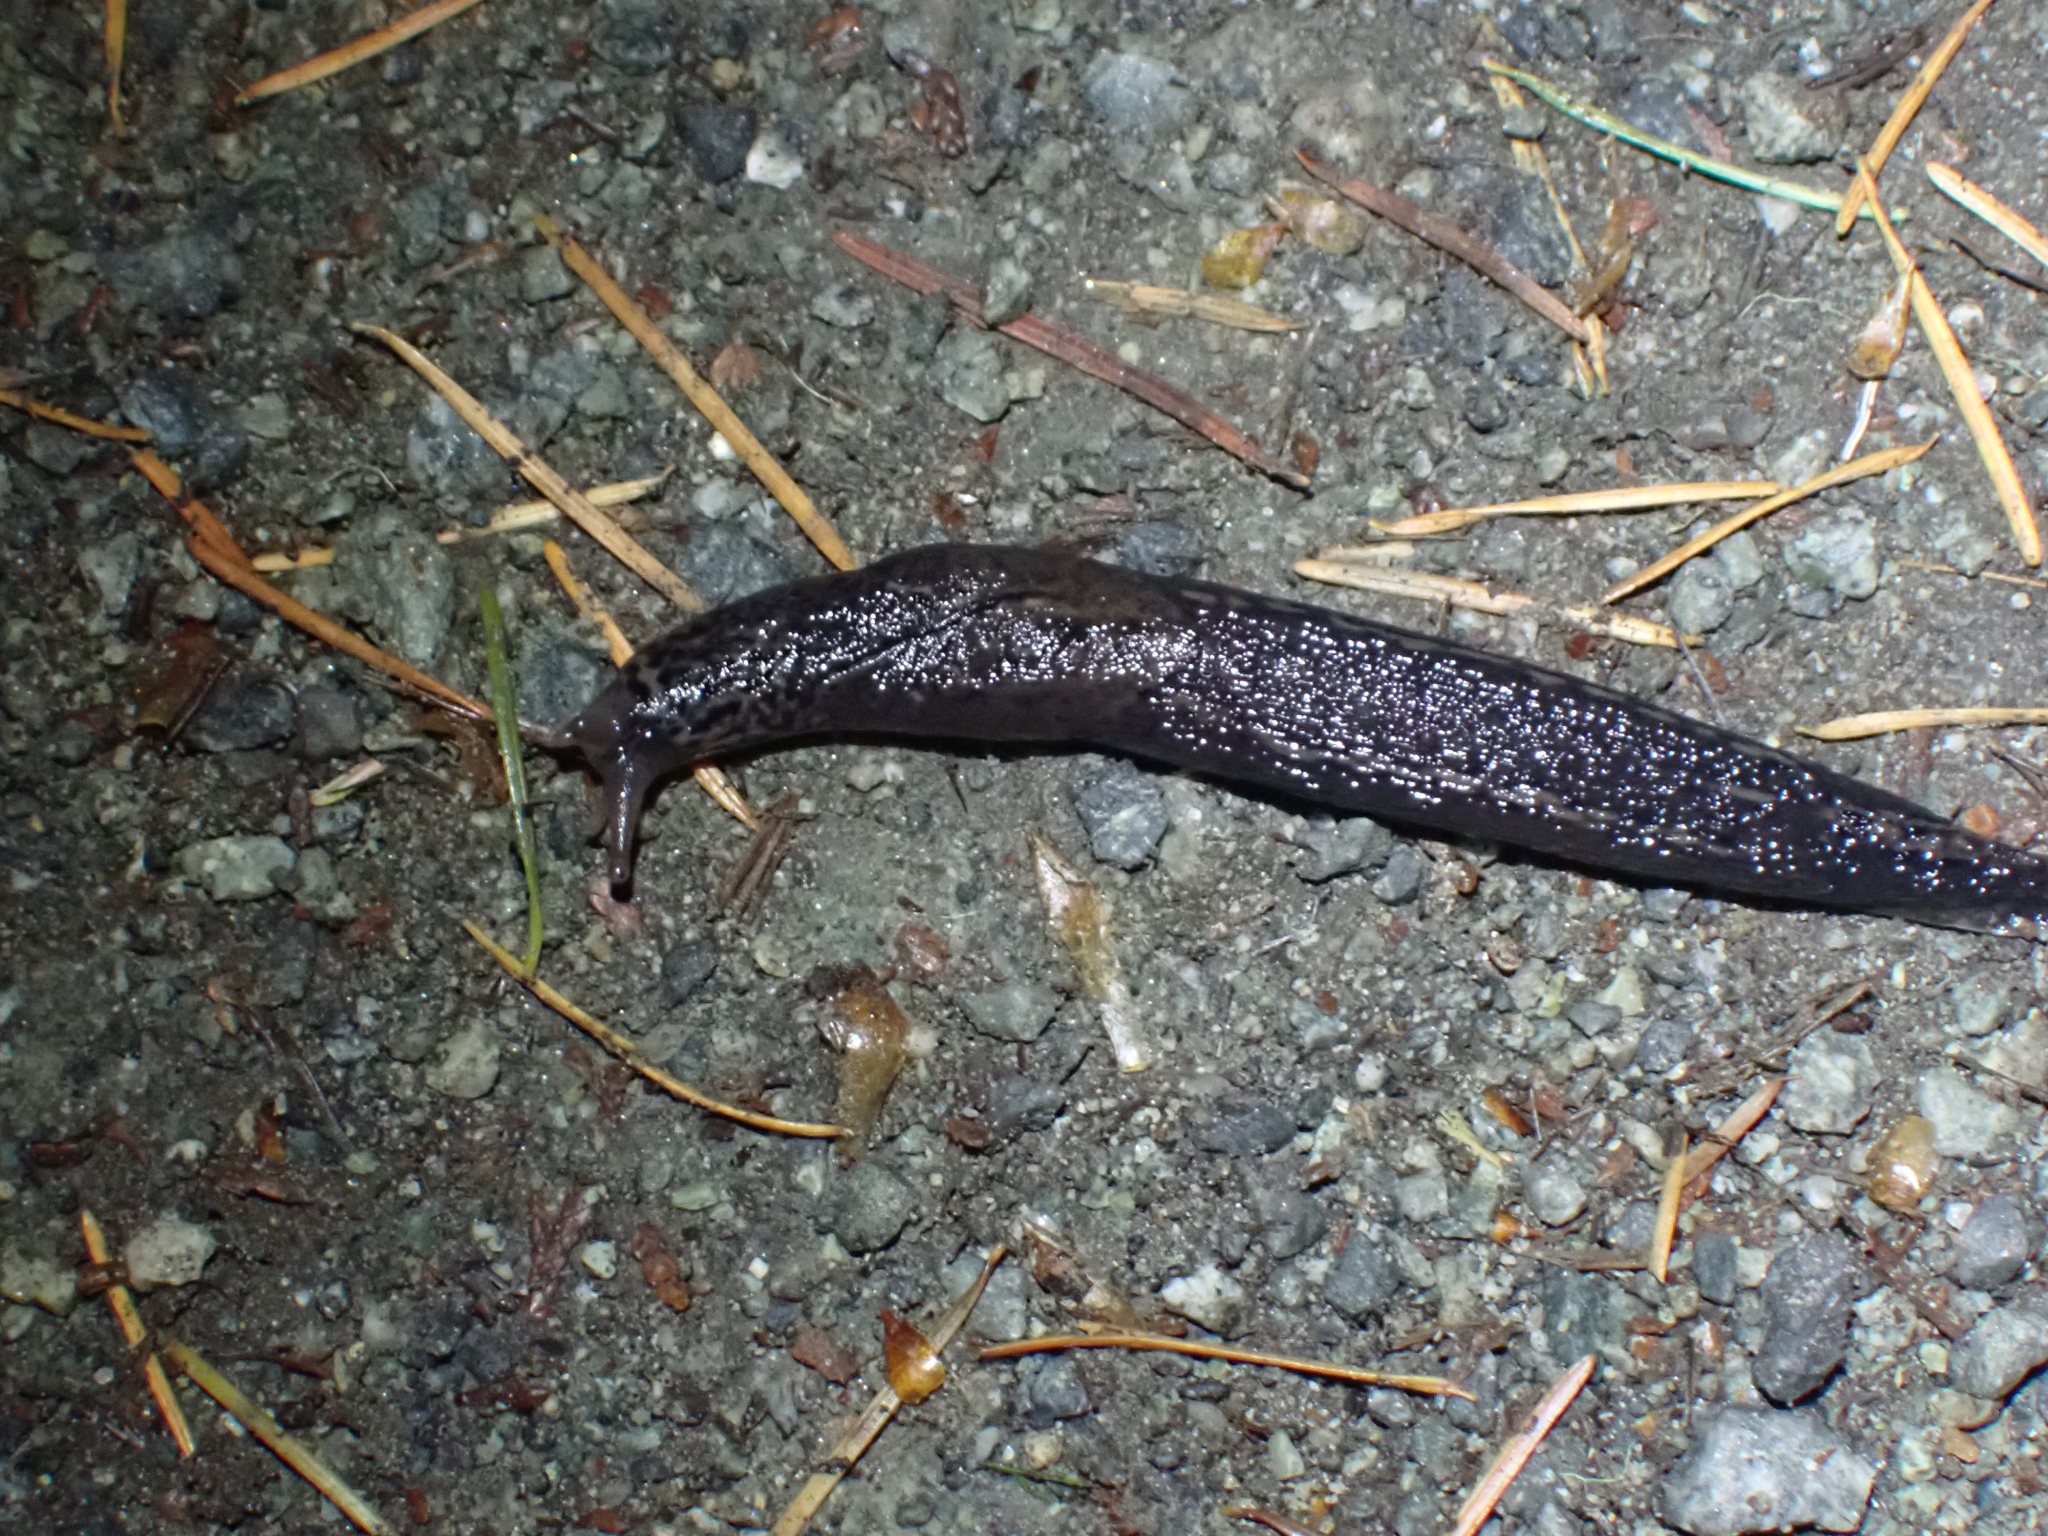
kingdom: Animalia
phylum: Mollusca
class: Gastropoda
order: Stylommatophora
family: Limacidae
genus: Limax
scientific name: Limax maximus
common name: Great grey slug
